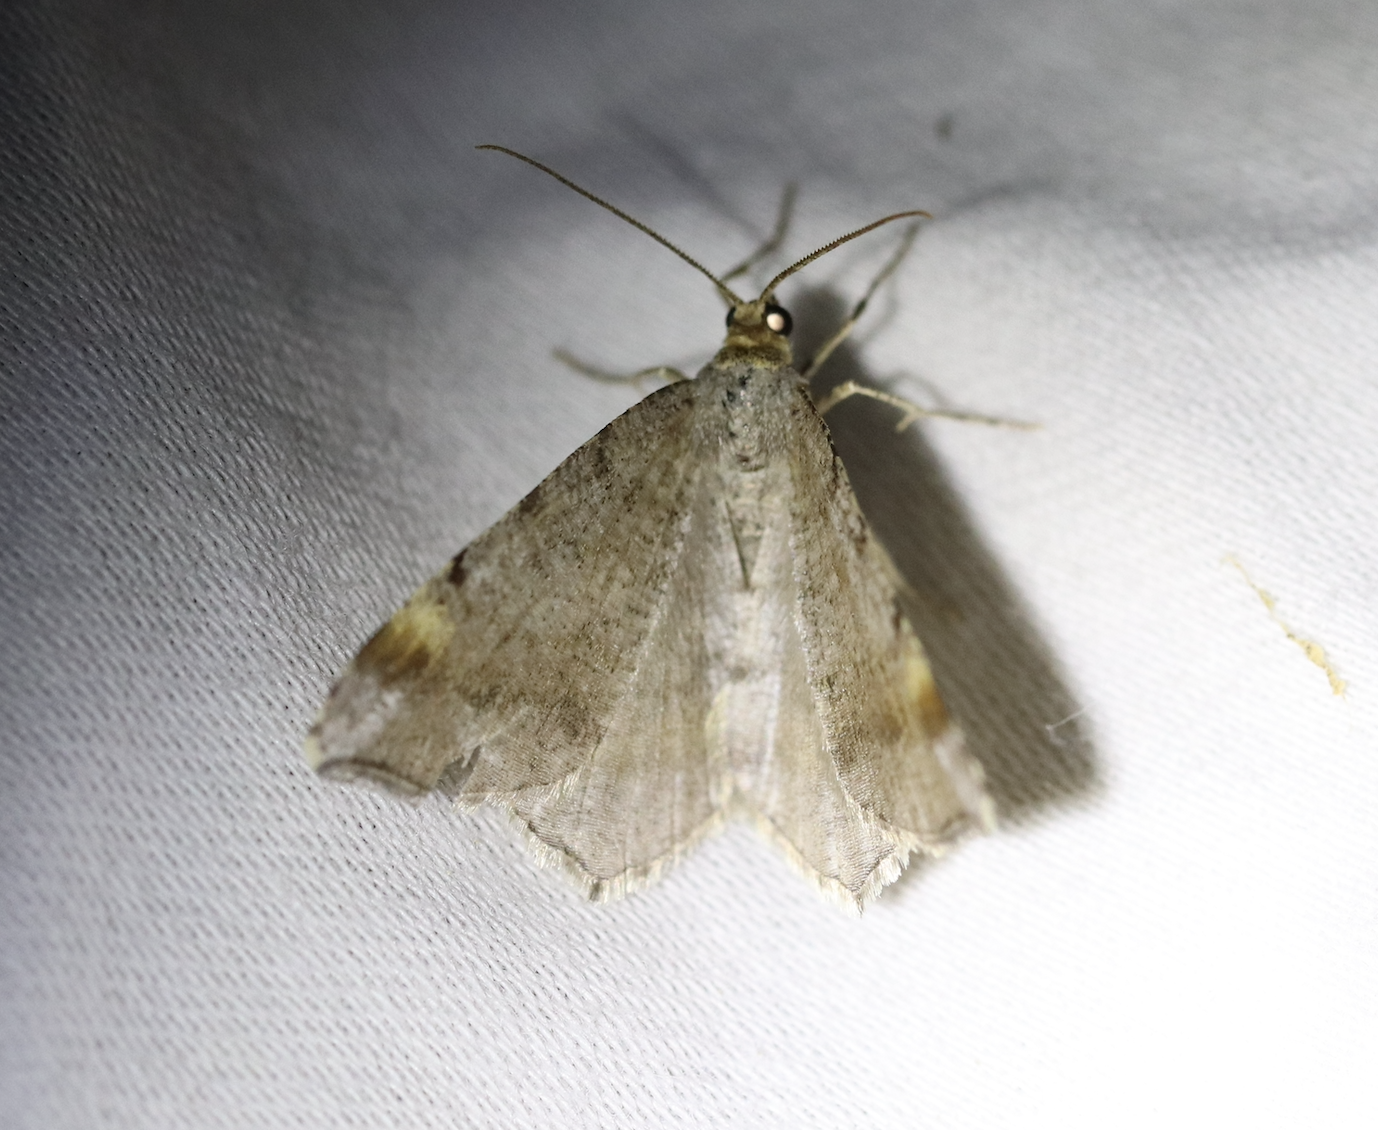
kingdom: Animalia
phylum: Arthropoda
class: Insecta
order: Lepidoptera
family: Geometridae
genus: Macaria
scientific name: Macaria liturata
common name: Tawny-barred angle
